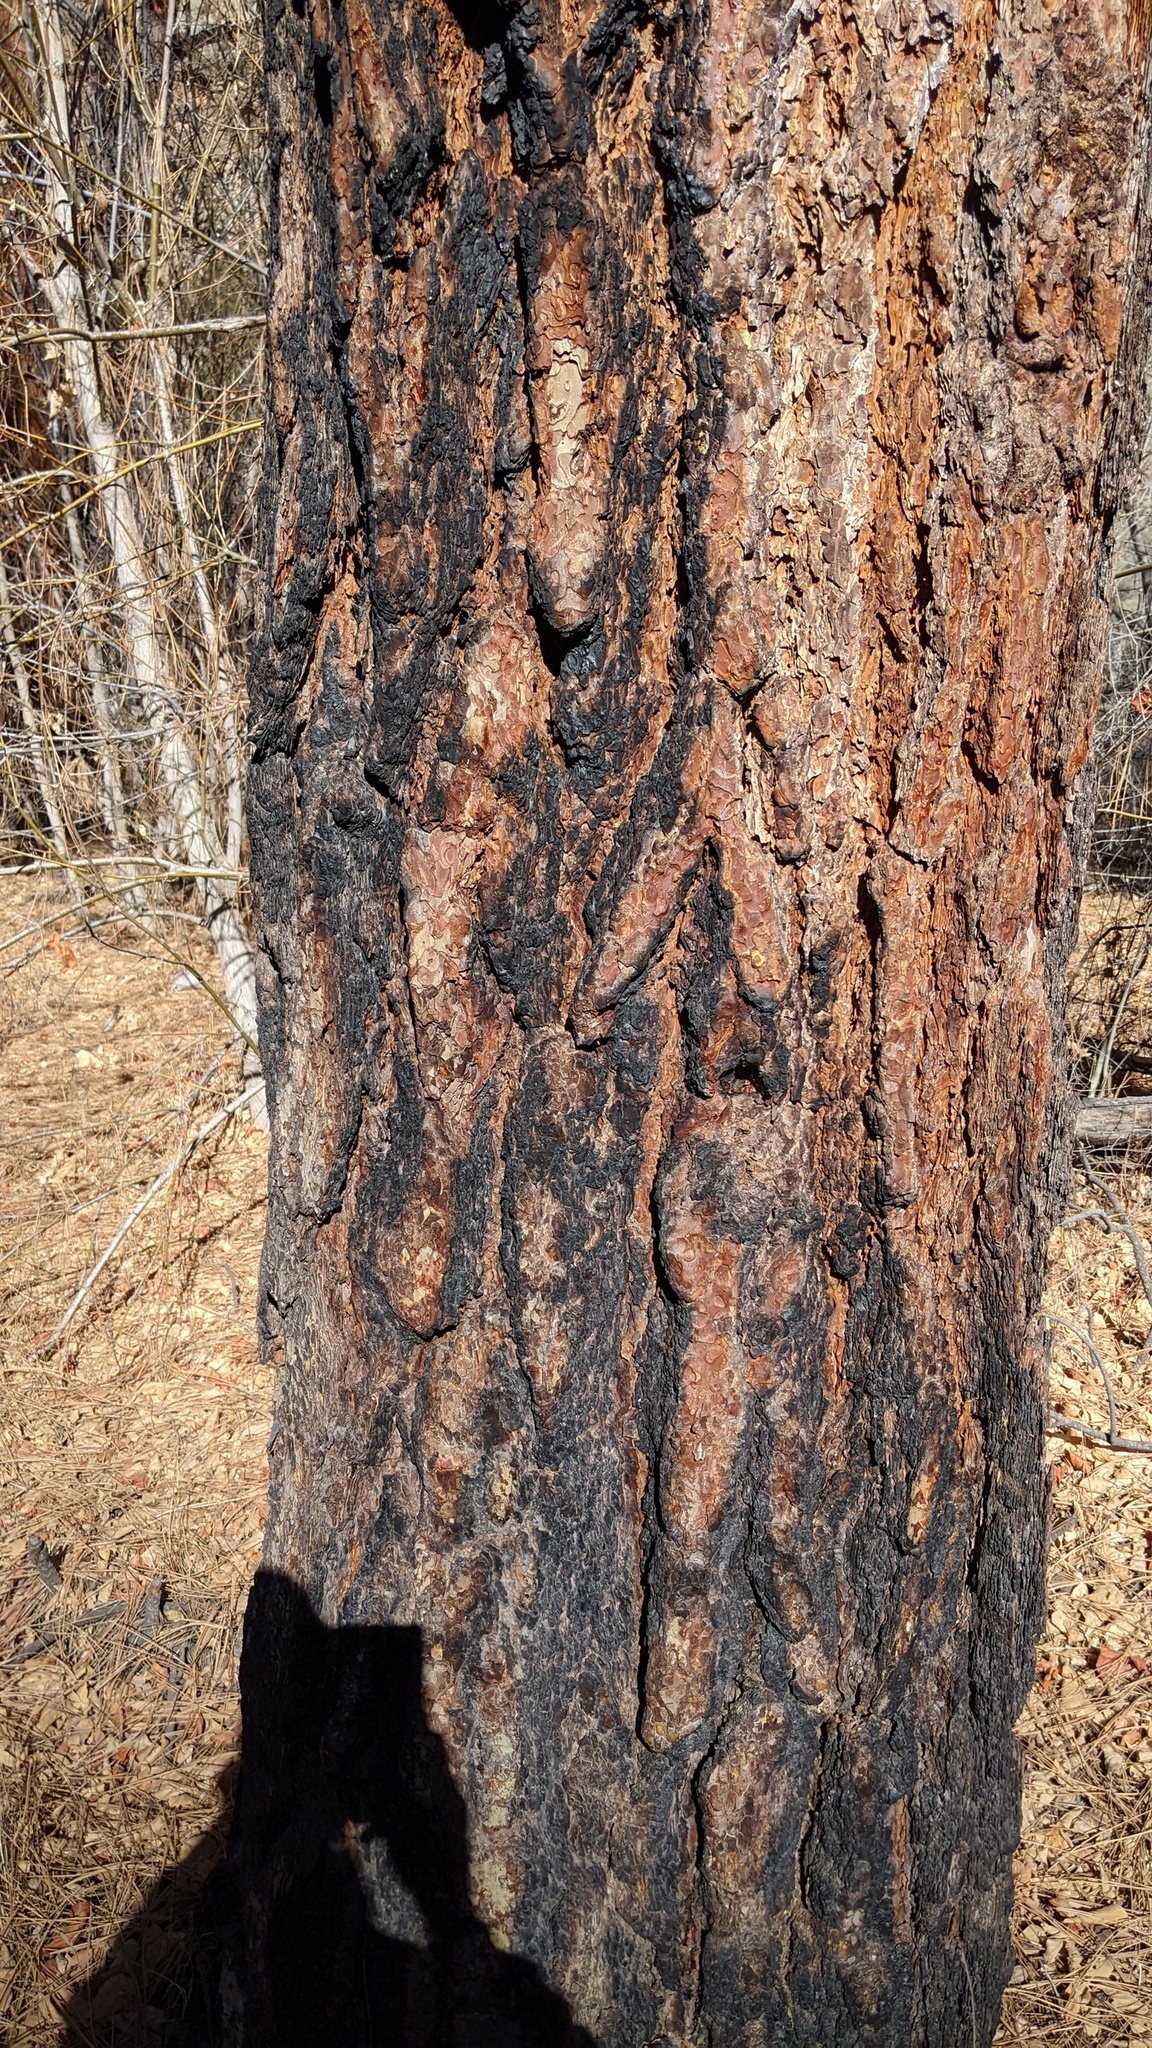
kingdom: Plantae
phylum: Tracheophyta
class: Pinopsida
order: Pinales
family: Pinaceae
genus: Pinus
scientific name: Pinus ponderosa
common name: Western yellow-pine
